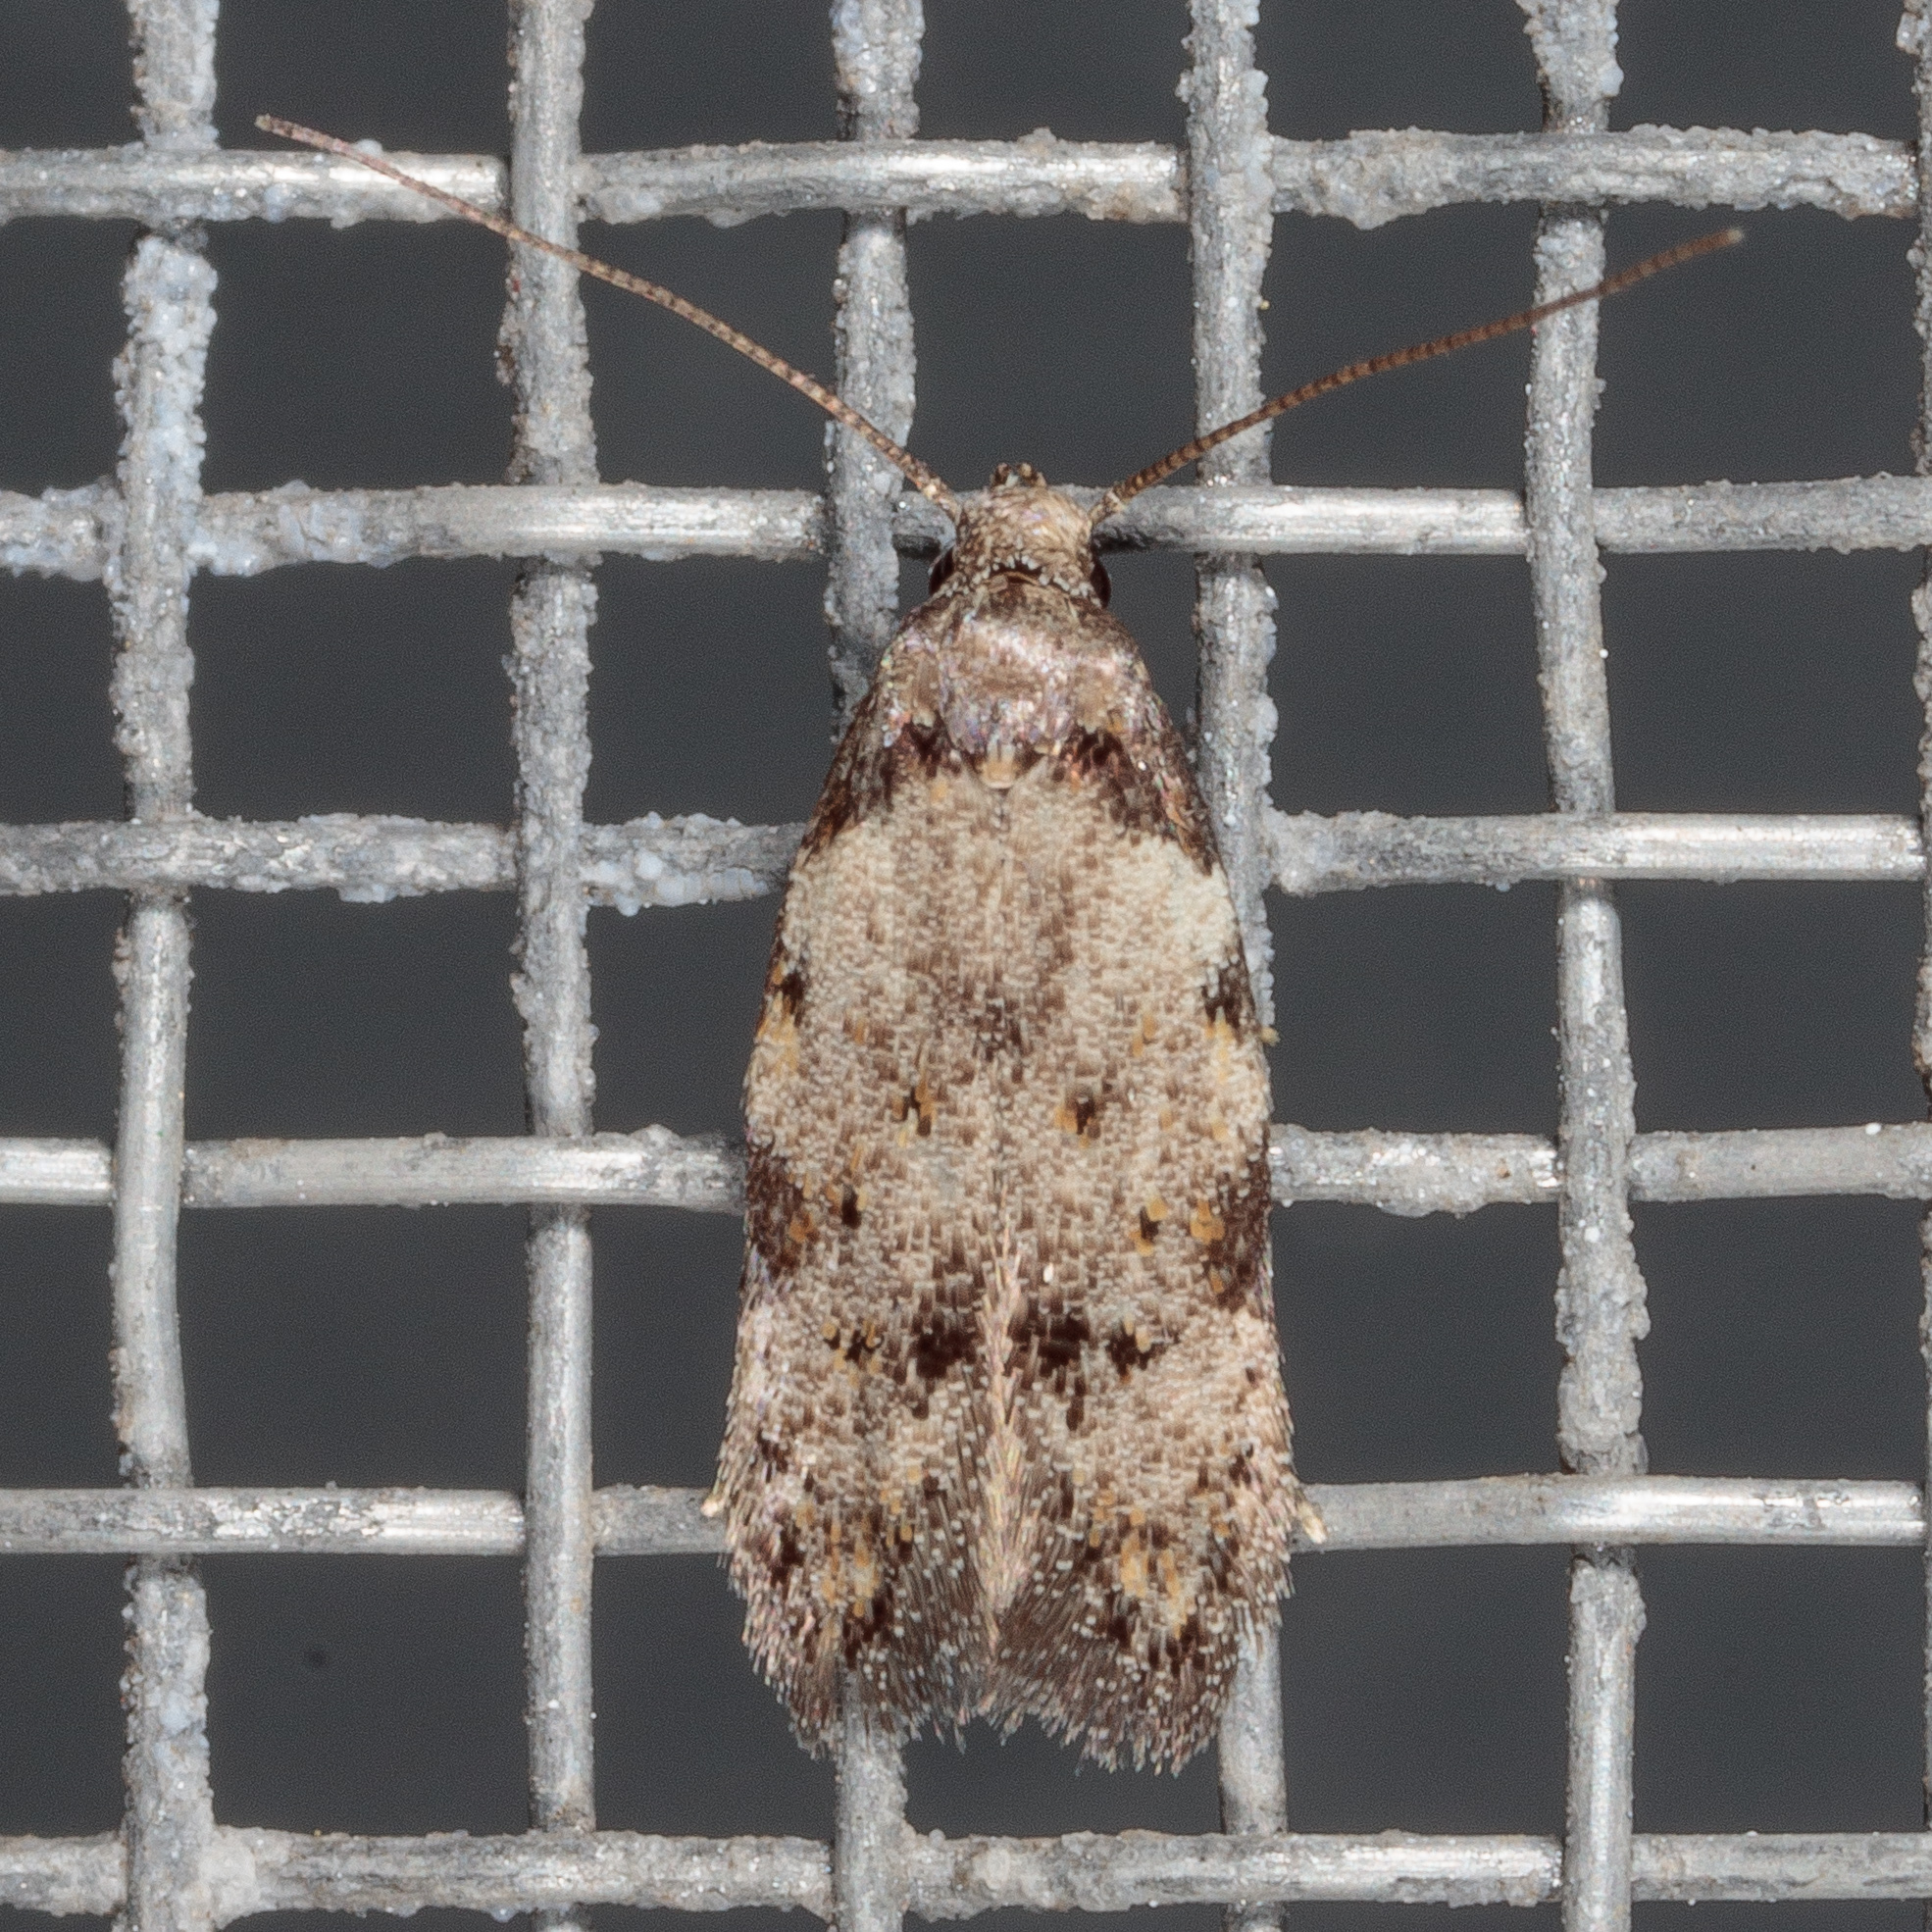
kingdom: Animalia
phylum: Arthropoda
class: Insecta
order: Lepidoptera
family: Autostichidae
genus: Taygete
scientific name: Taygete attributella
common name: Triangle-marked twirler moth
